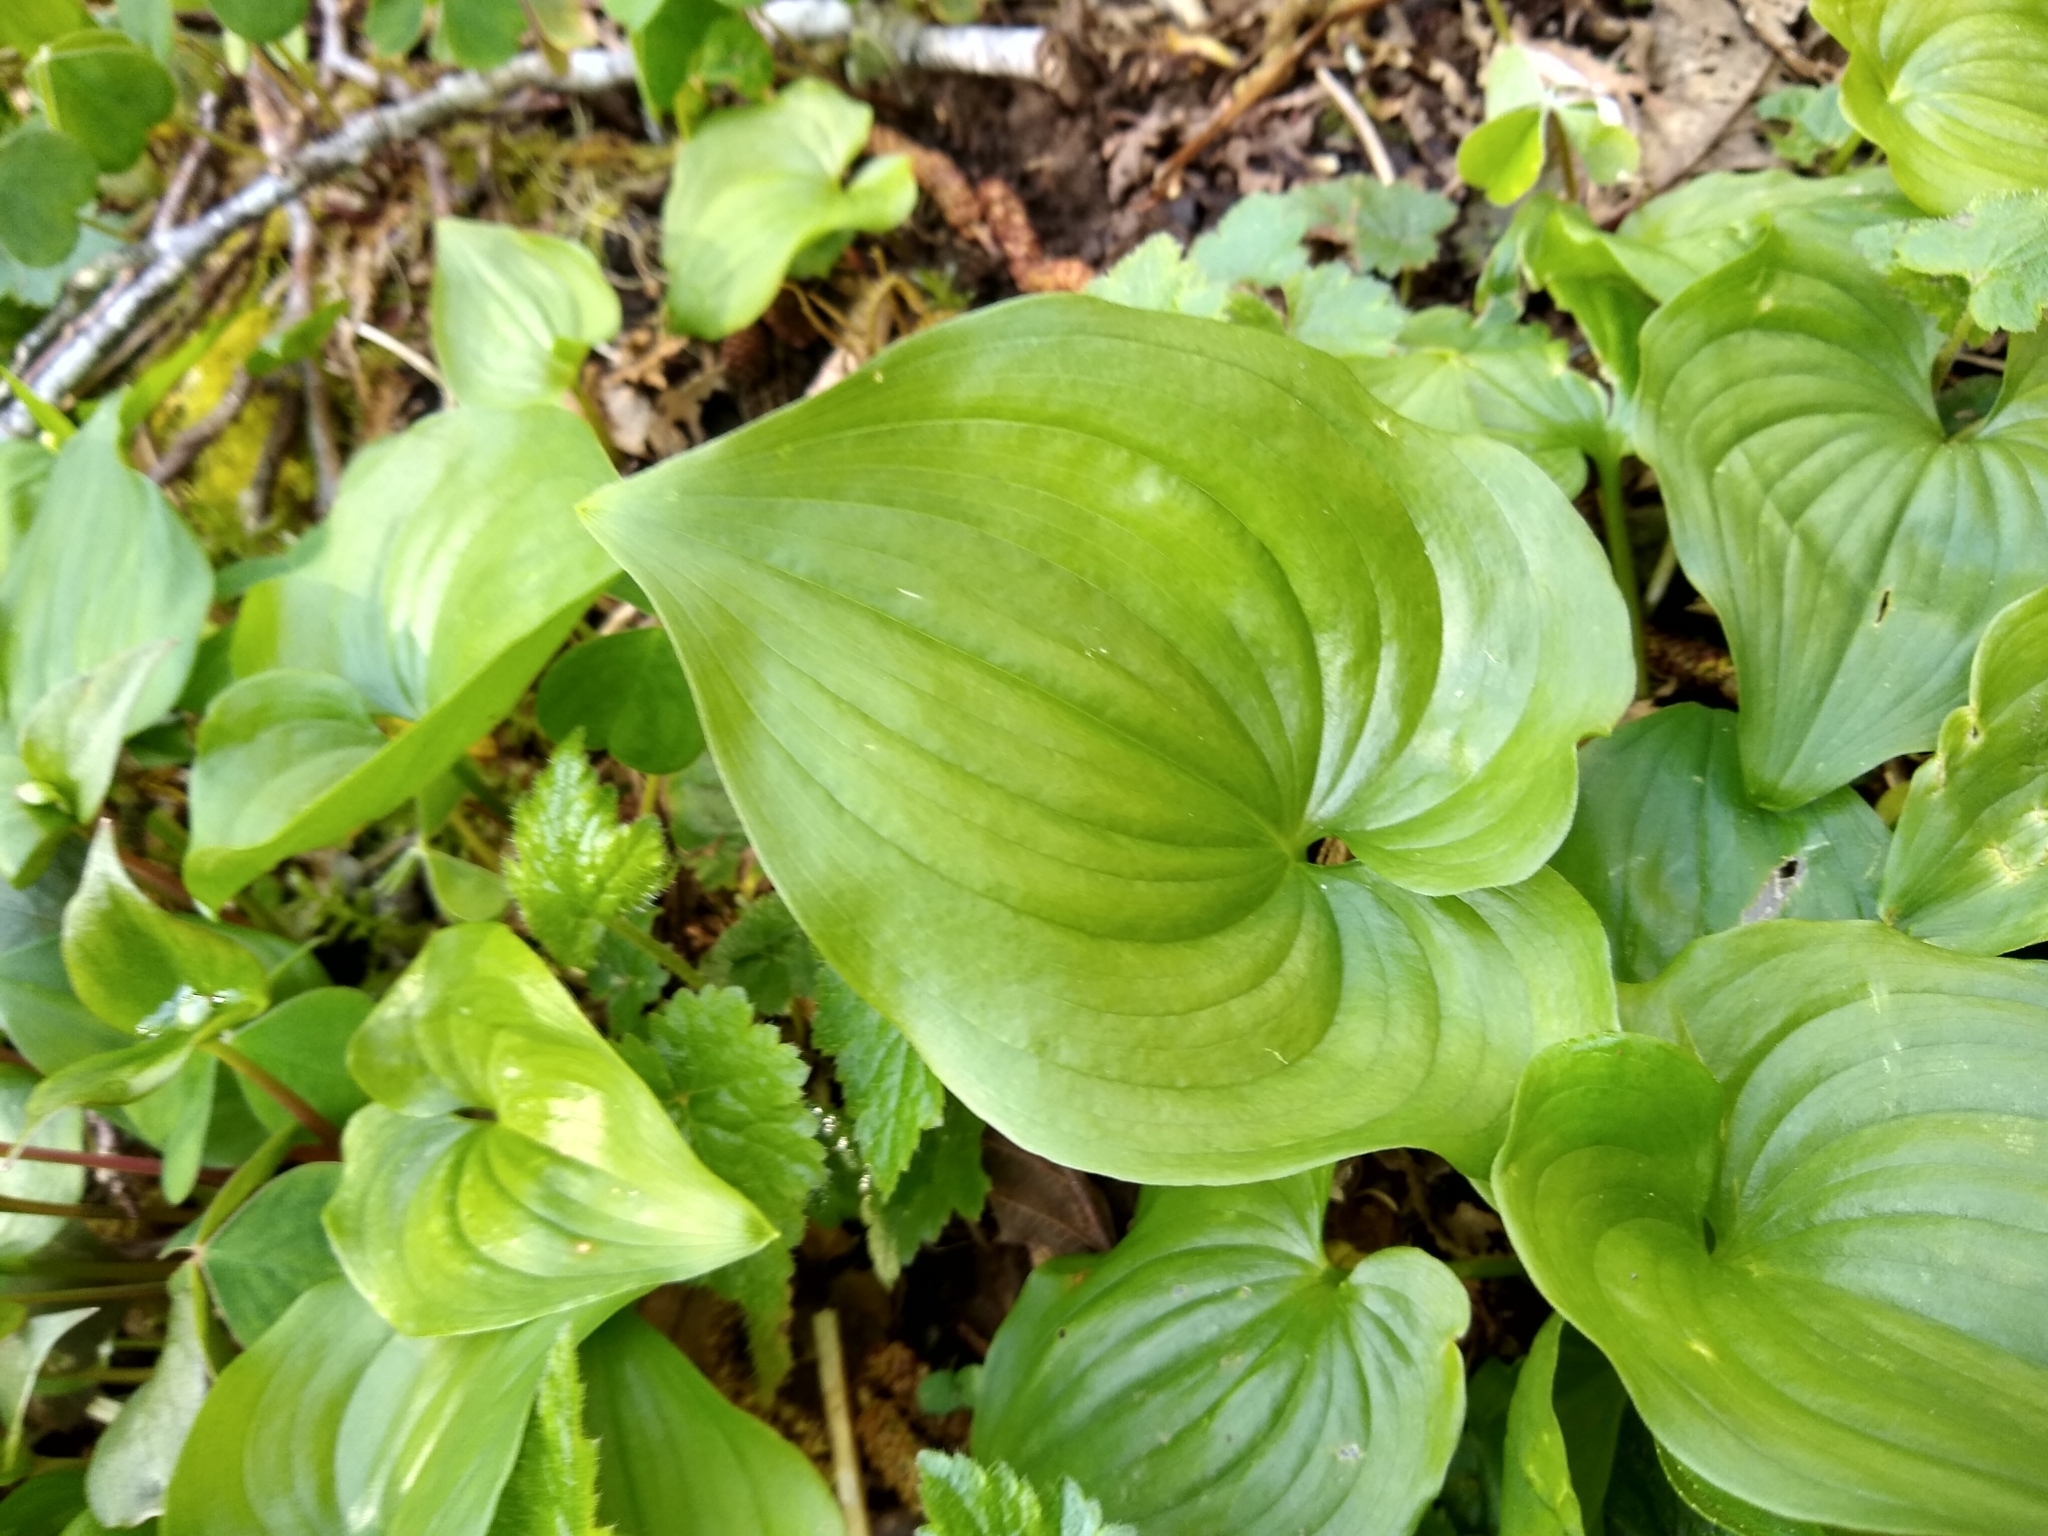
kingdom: Plantae
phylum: Tracheophyta
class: Liliopsida
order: Asparagales
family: Asparagaceae
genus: Maianthemum
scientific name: Maianthemum dilatatum
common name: False lily-of-the-valley
